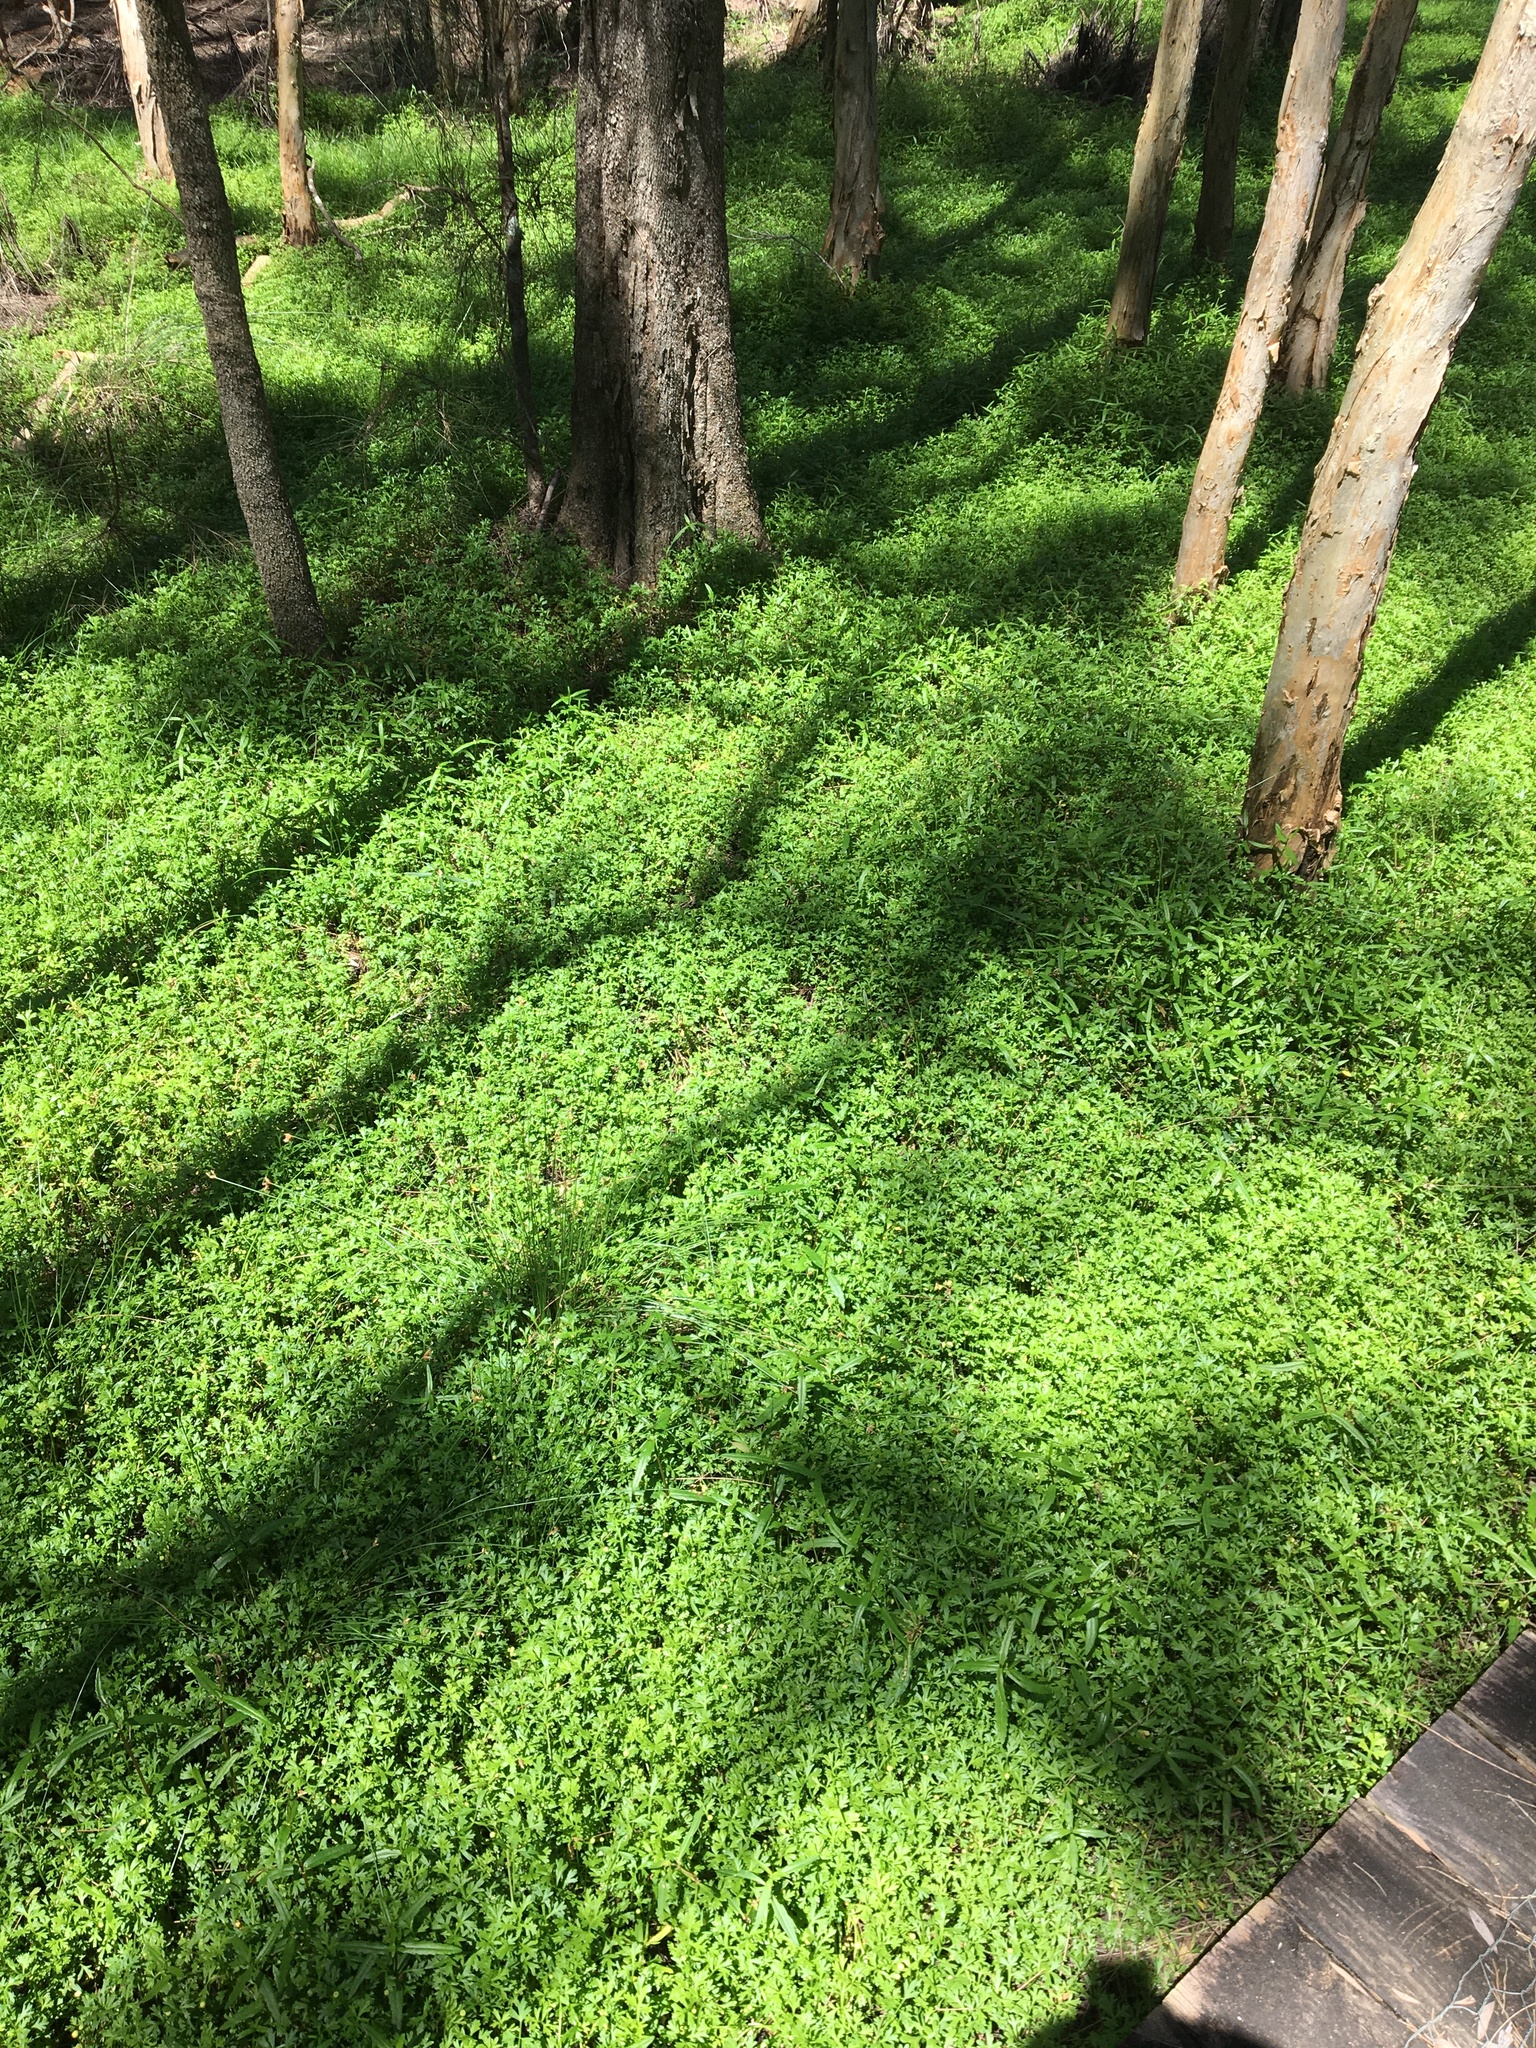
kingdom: Plantae
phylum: Tracheophyta
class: Magnoliopsida
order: Asterales
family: Asteraceae
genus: Cotula
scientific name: Cotula australis
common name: Australian waterbuttons
